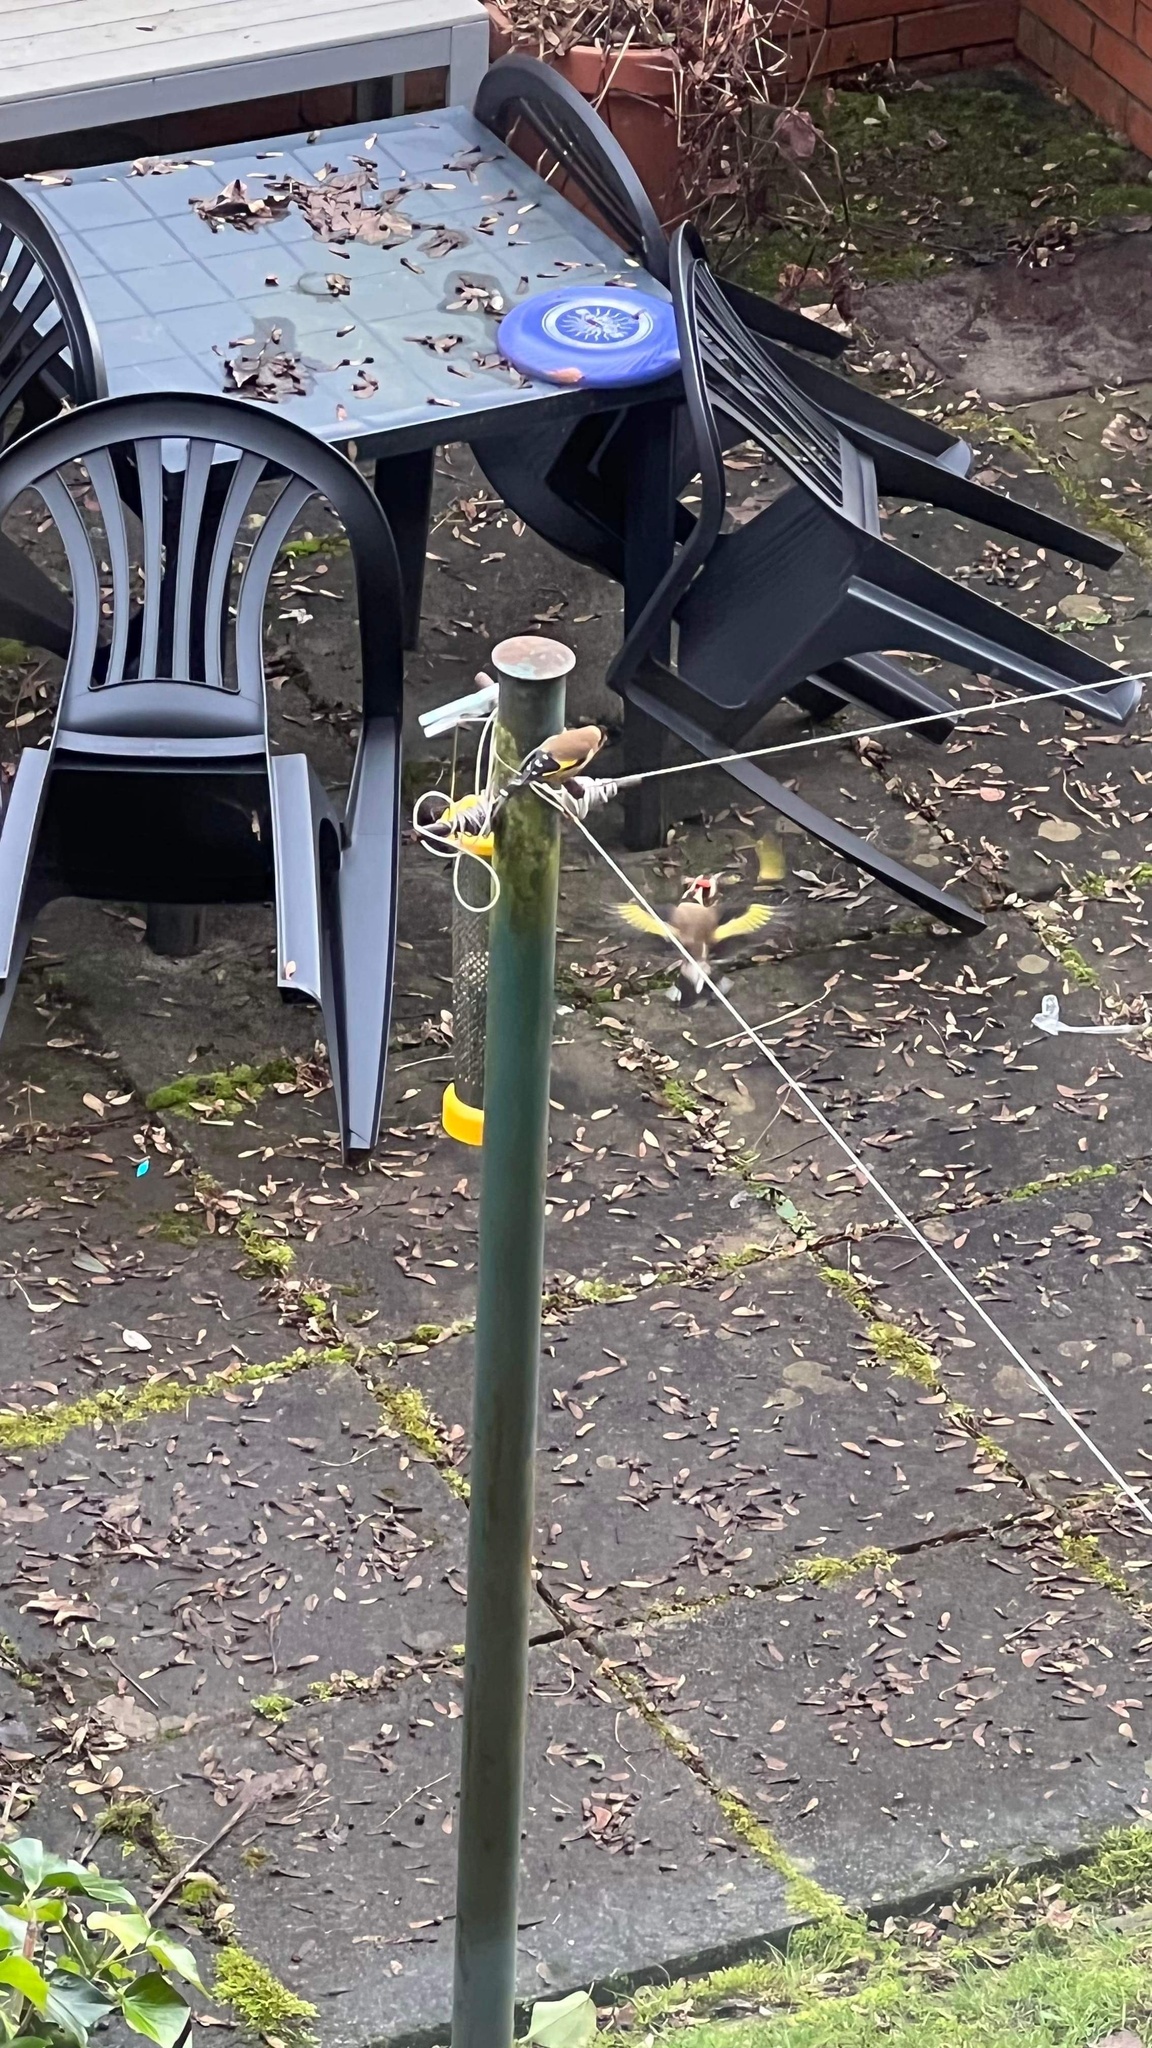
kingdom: Animalia
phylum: Chordata
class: Aves
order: Passeriformes
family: Fringillidae
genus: Carduelis
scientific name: Carduelis carduelis
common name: European goldfinch
